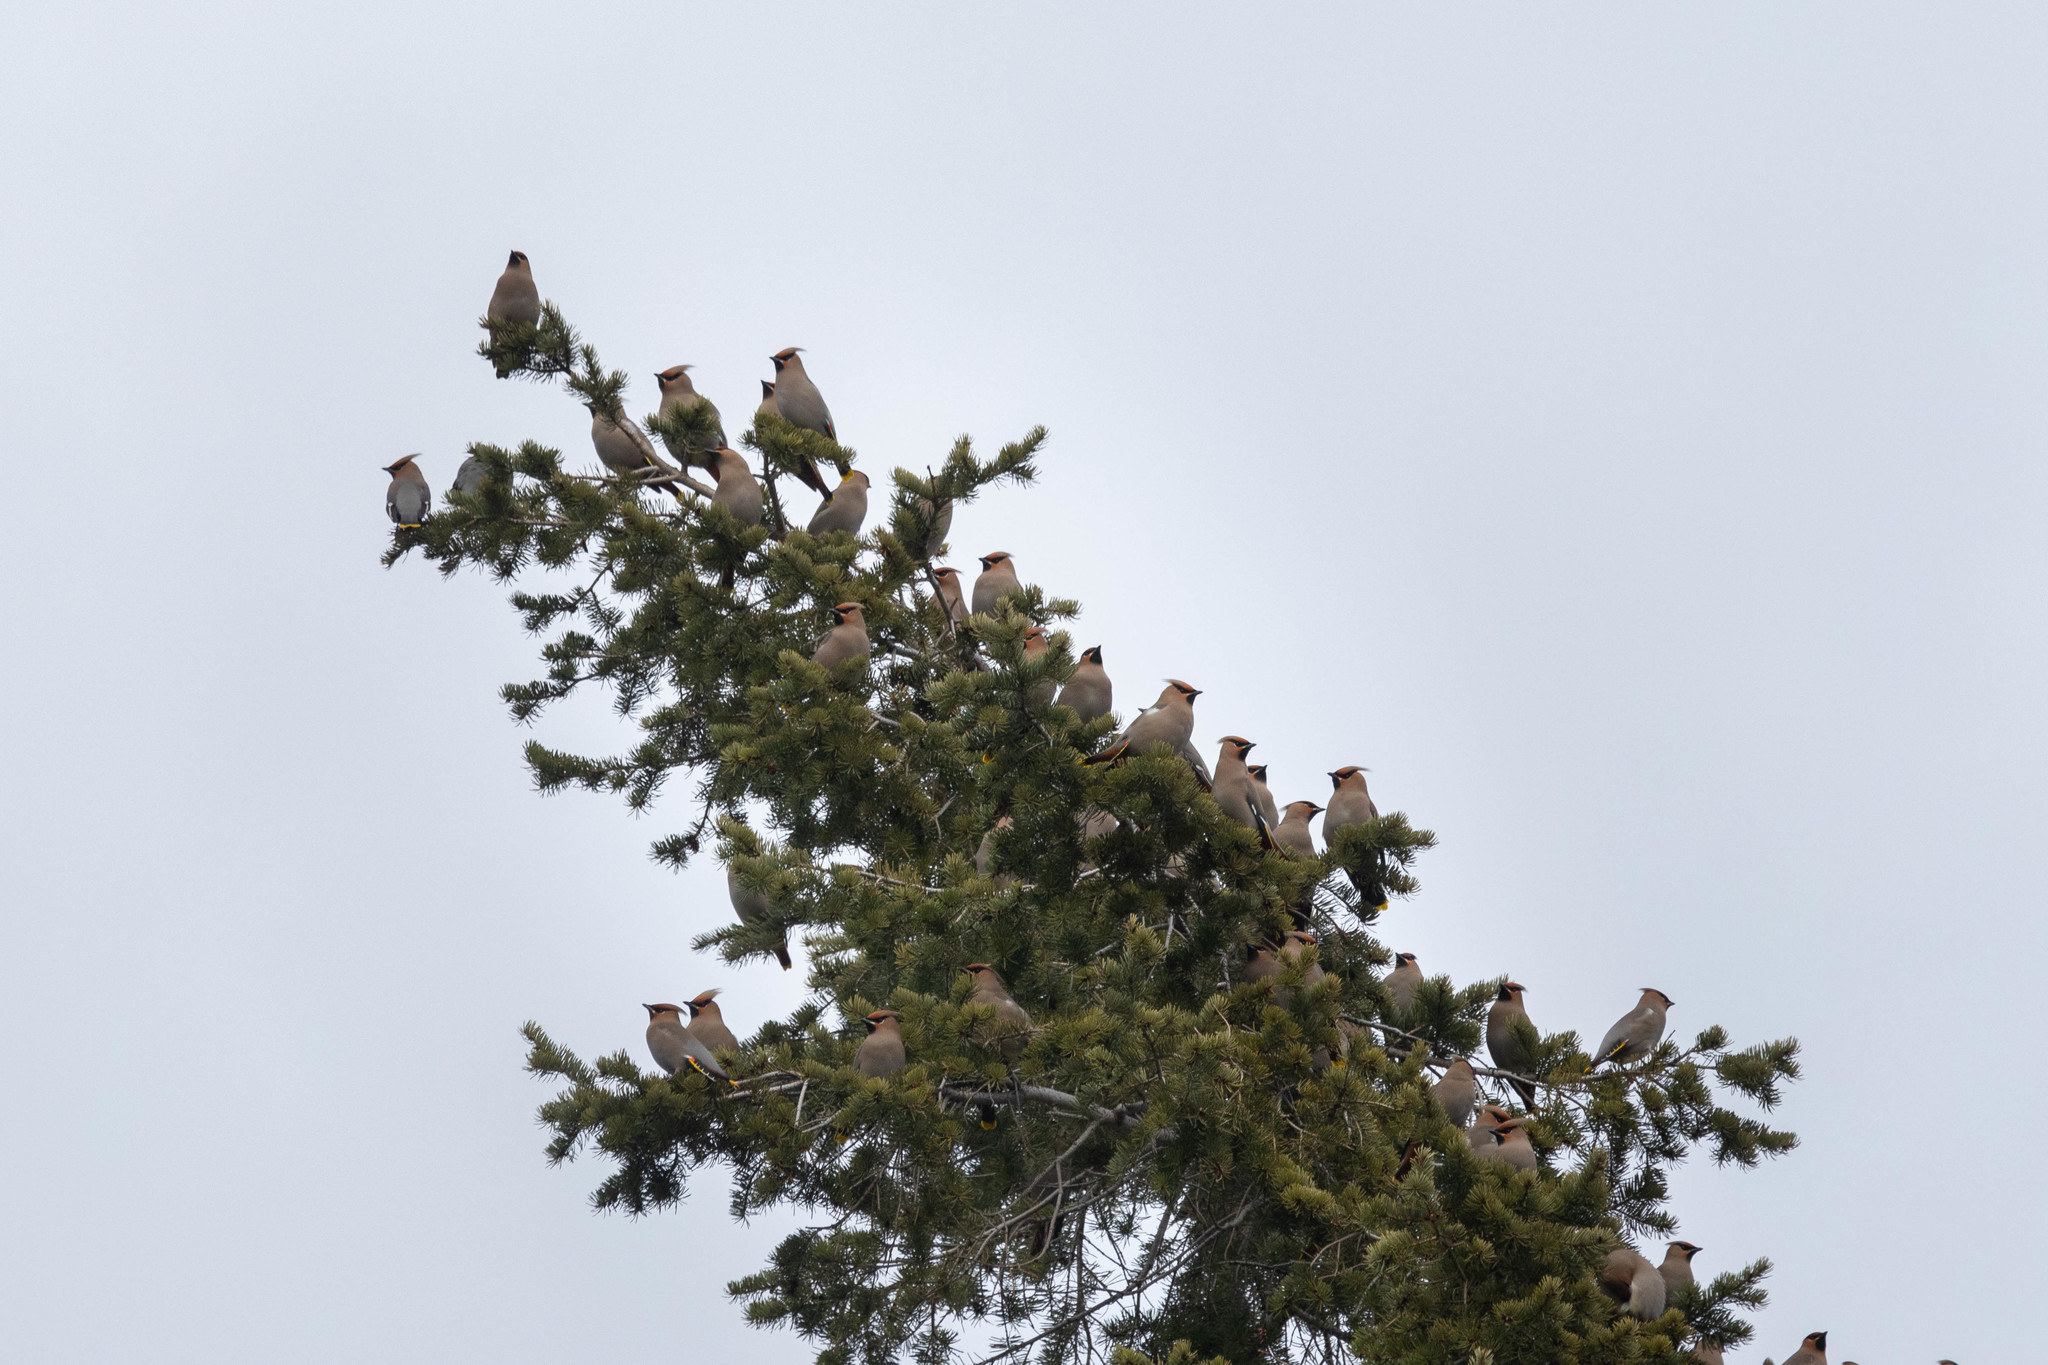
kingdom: Animalia
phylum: Chordata
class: Aves
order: Passeriformes
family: Bombycillidae
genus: Bombycilla
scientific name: Bombycilla garrulus
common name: Bohemian waxwing
